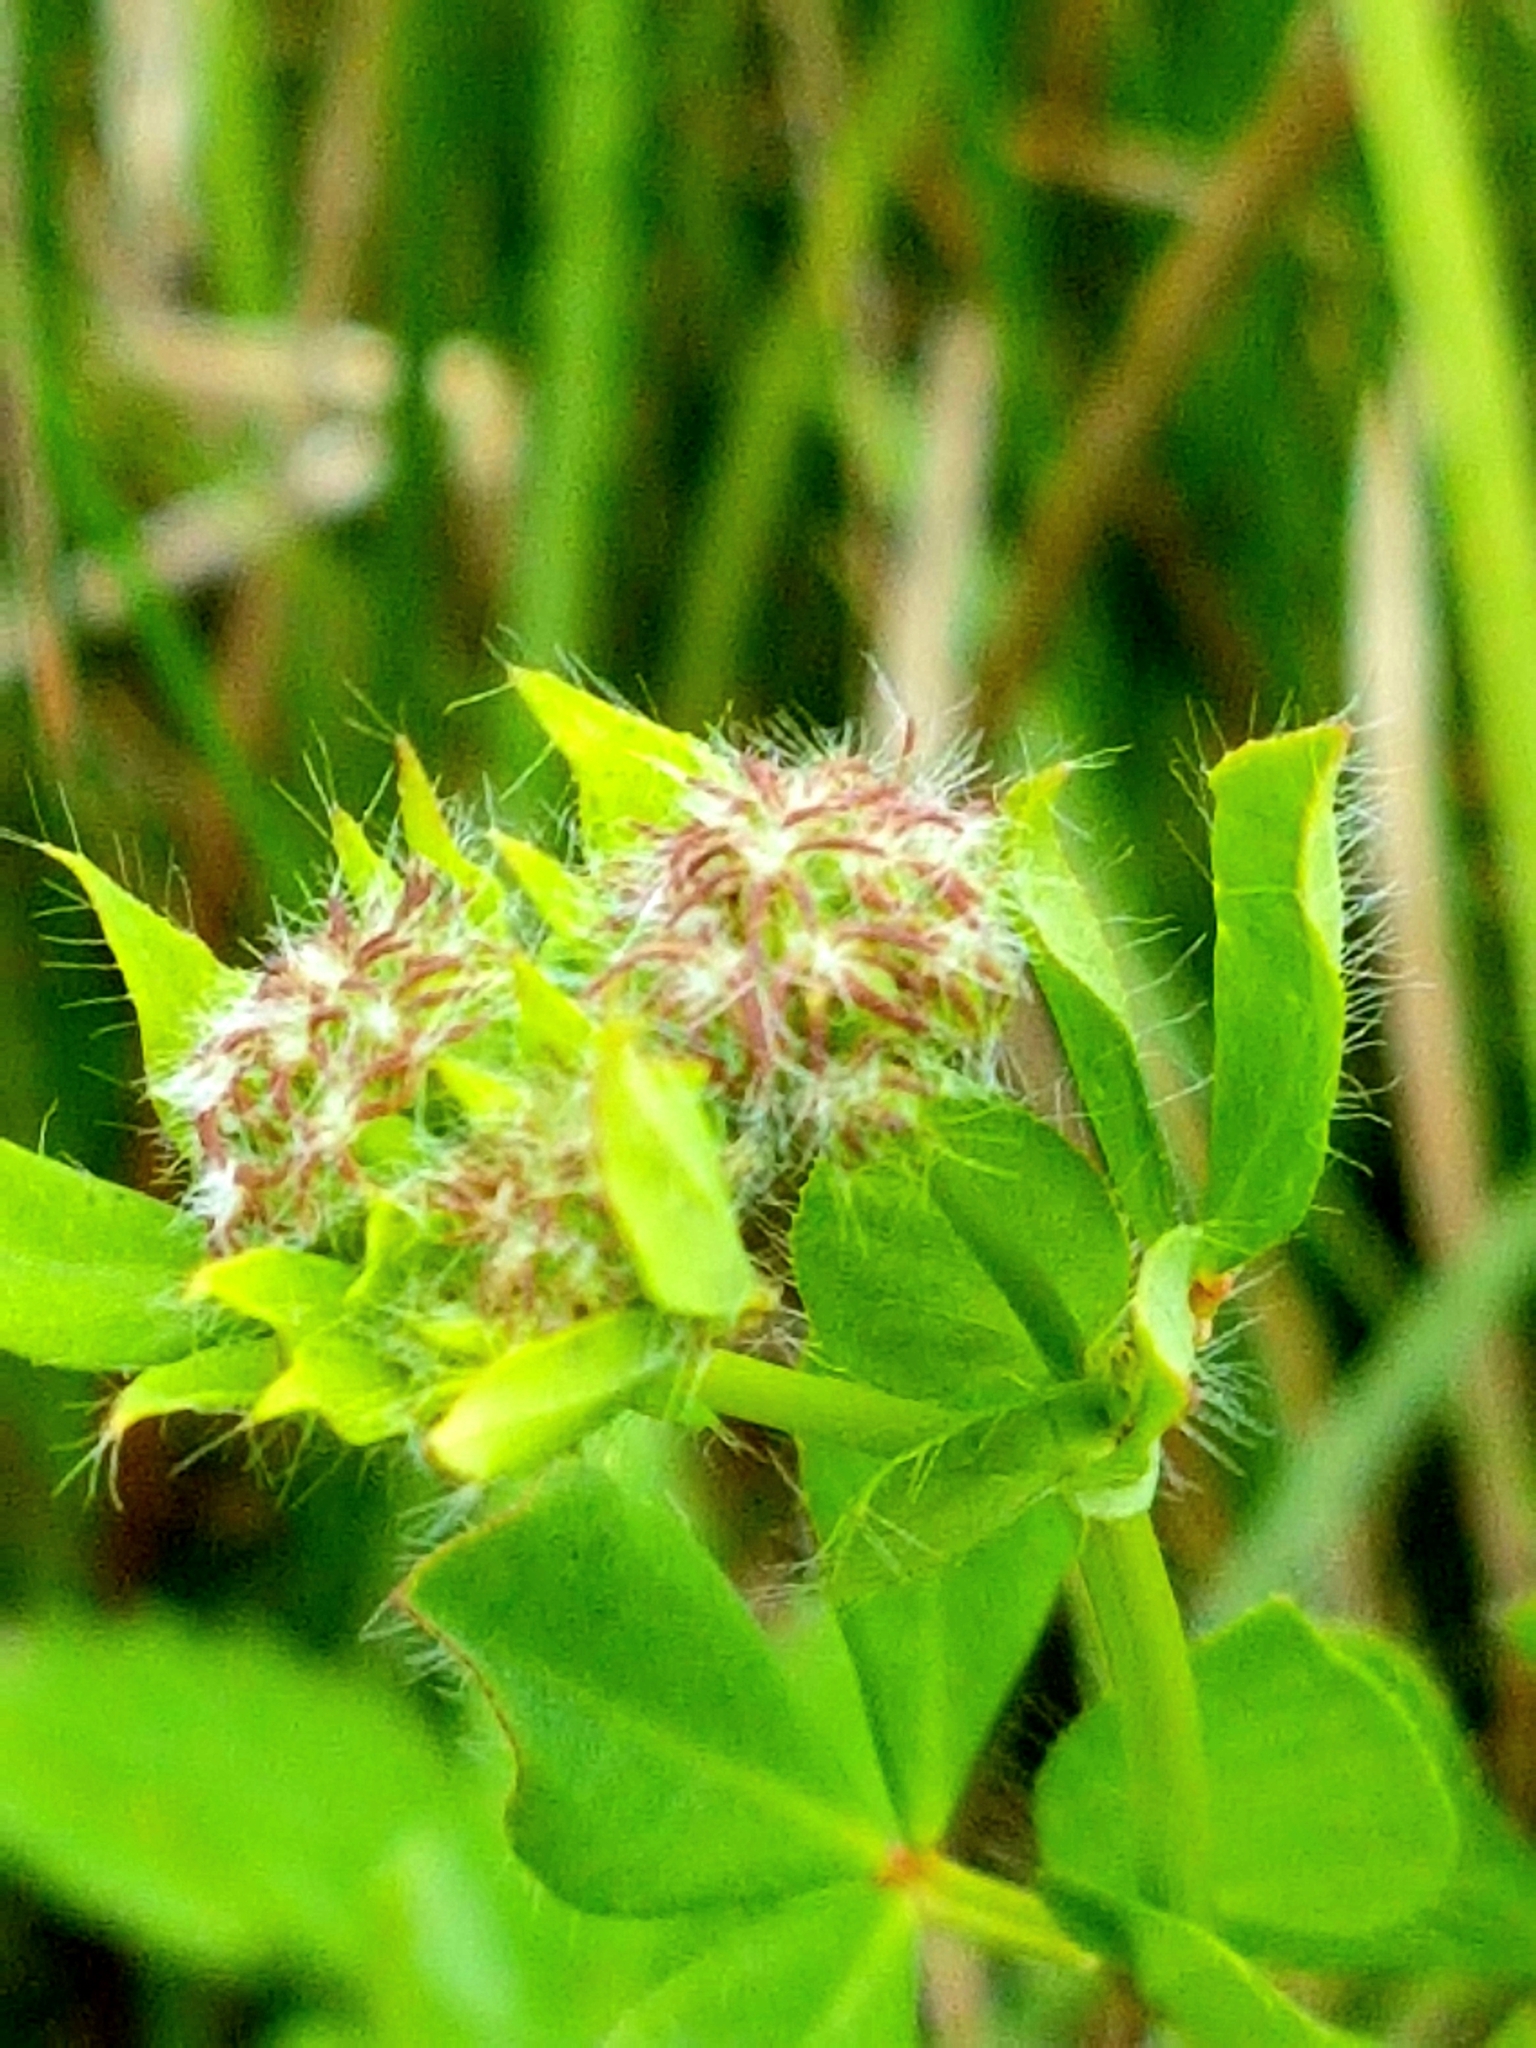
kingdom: Plantae
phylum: Tracheophyta
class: Magnoliopsida
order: Fabales
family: Fabaceae
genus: Lotus
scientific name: Lotus pedunculatus
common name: Greater birdsfoot-trefoil
